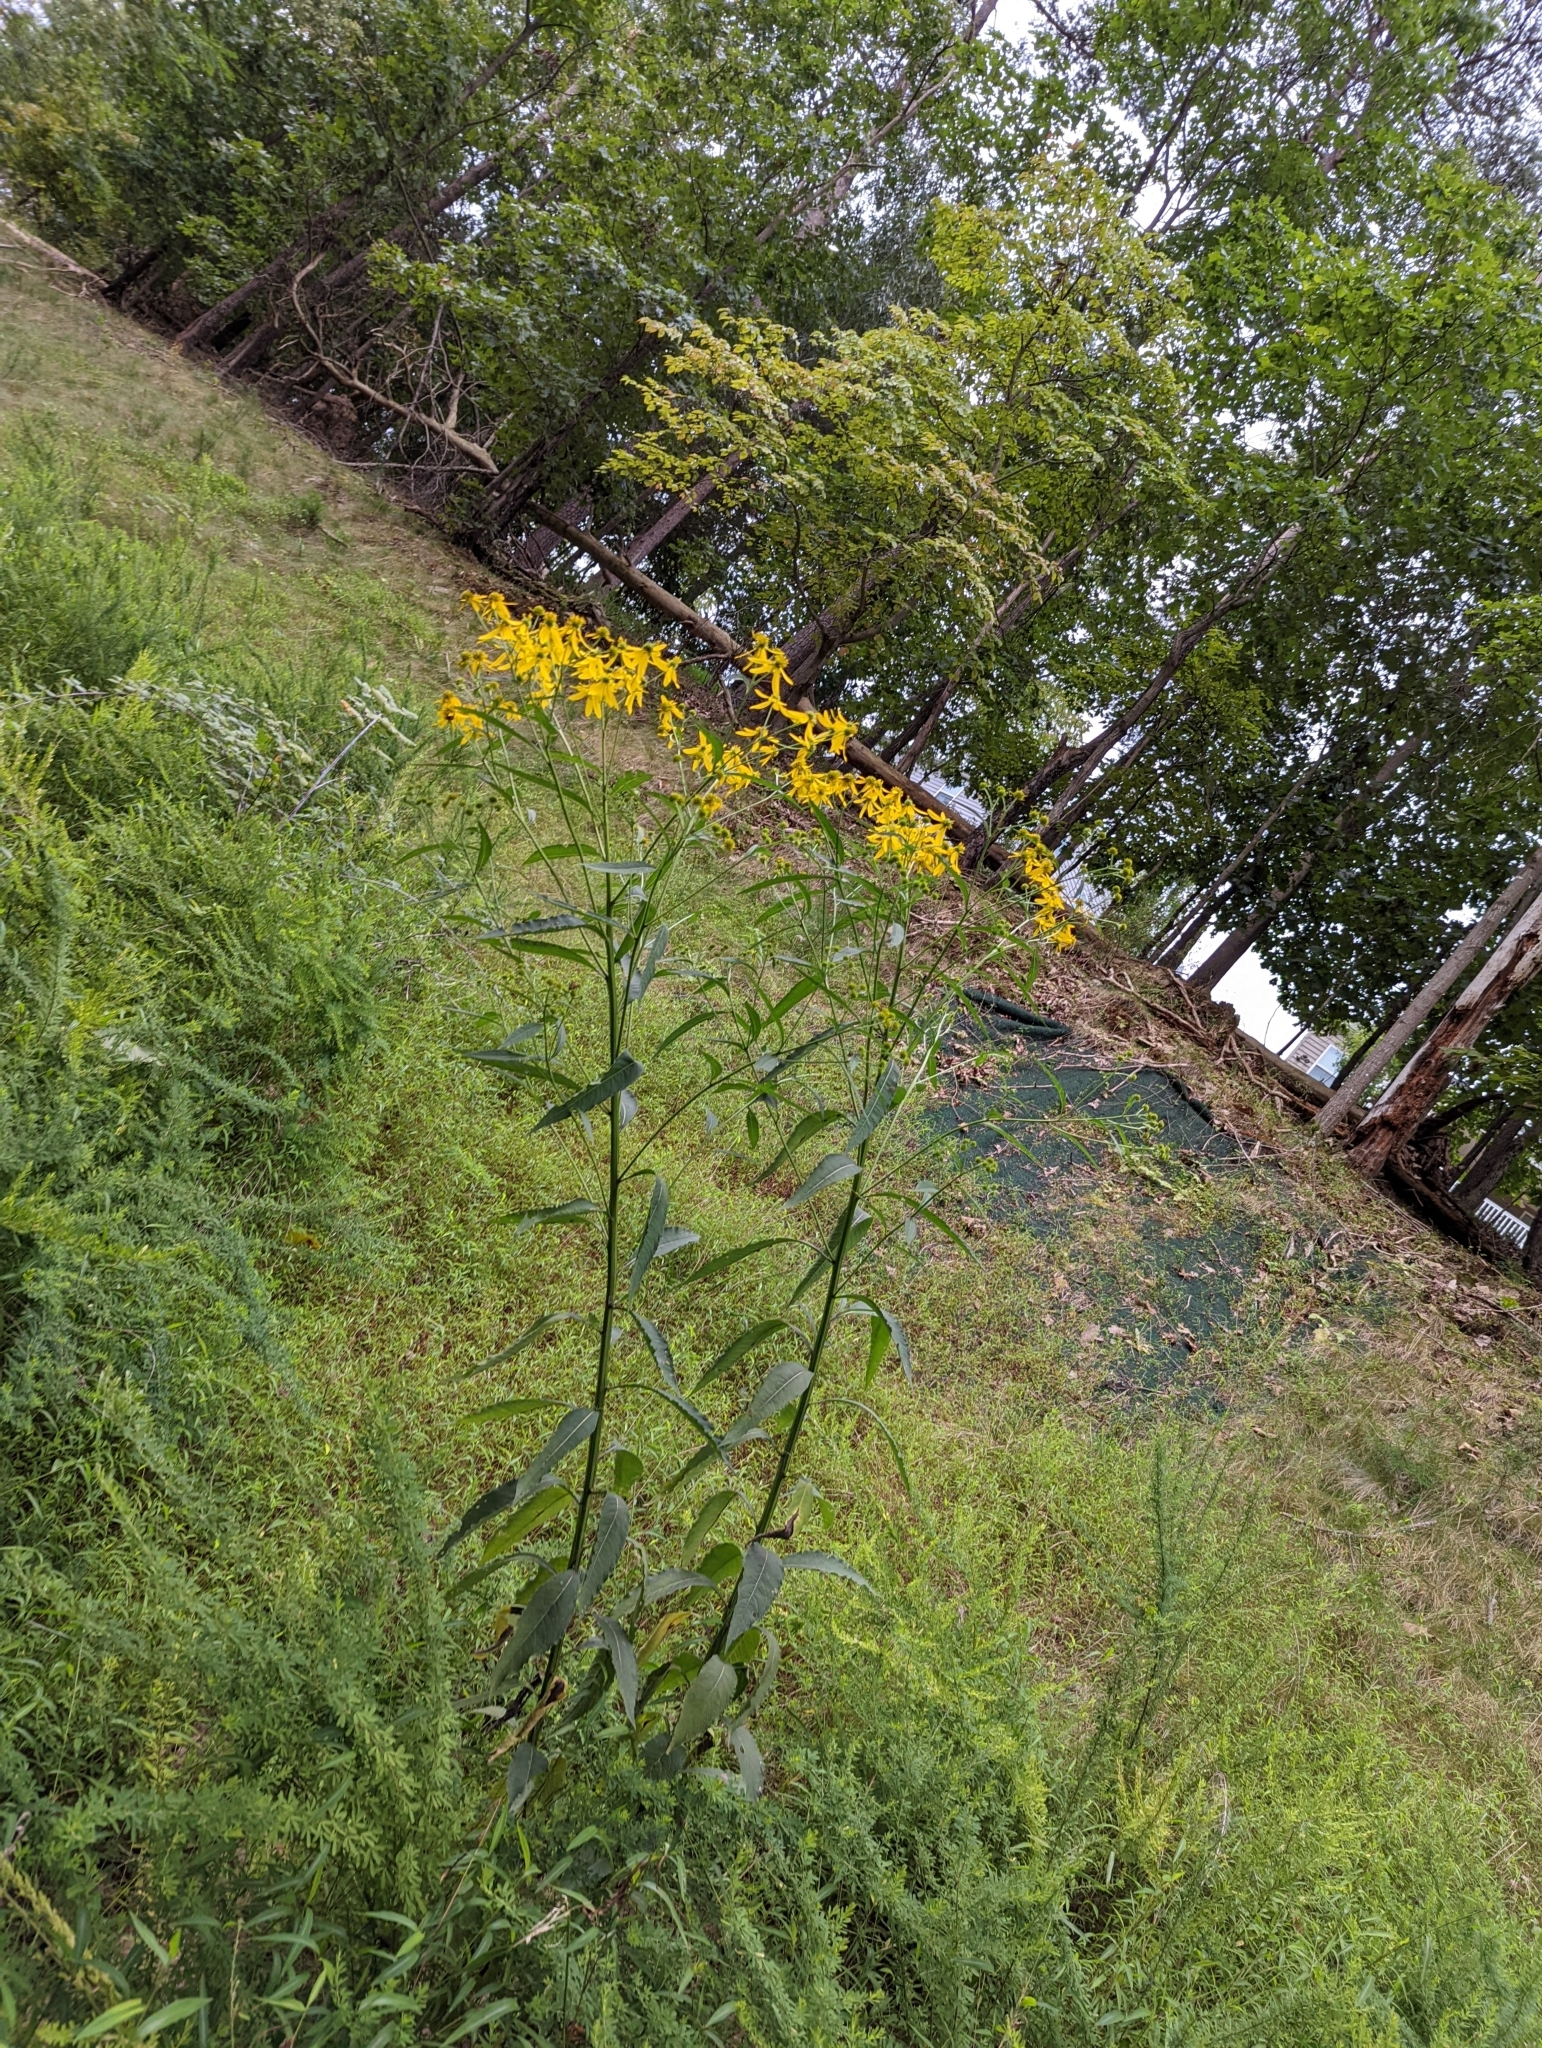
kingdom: Plantae
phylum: Tracheophyta
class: Magnoliopsida
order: Asterales
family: Asteraceae
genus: Verbesina
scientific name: Verbesina alternifolia
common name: Wingstem
